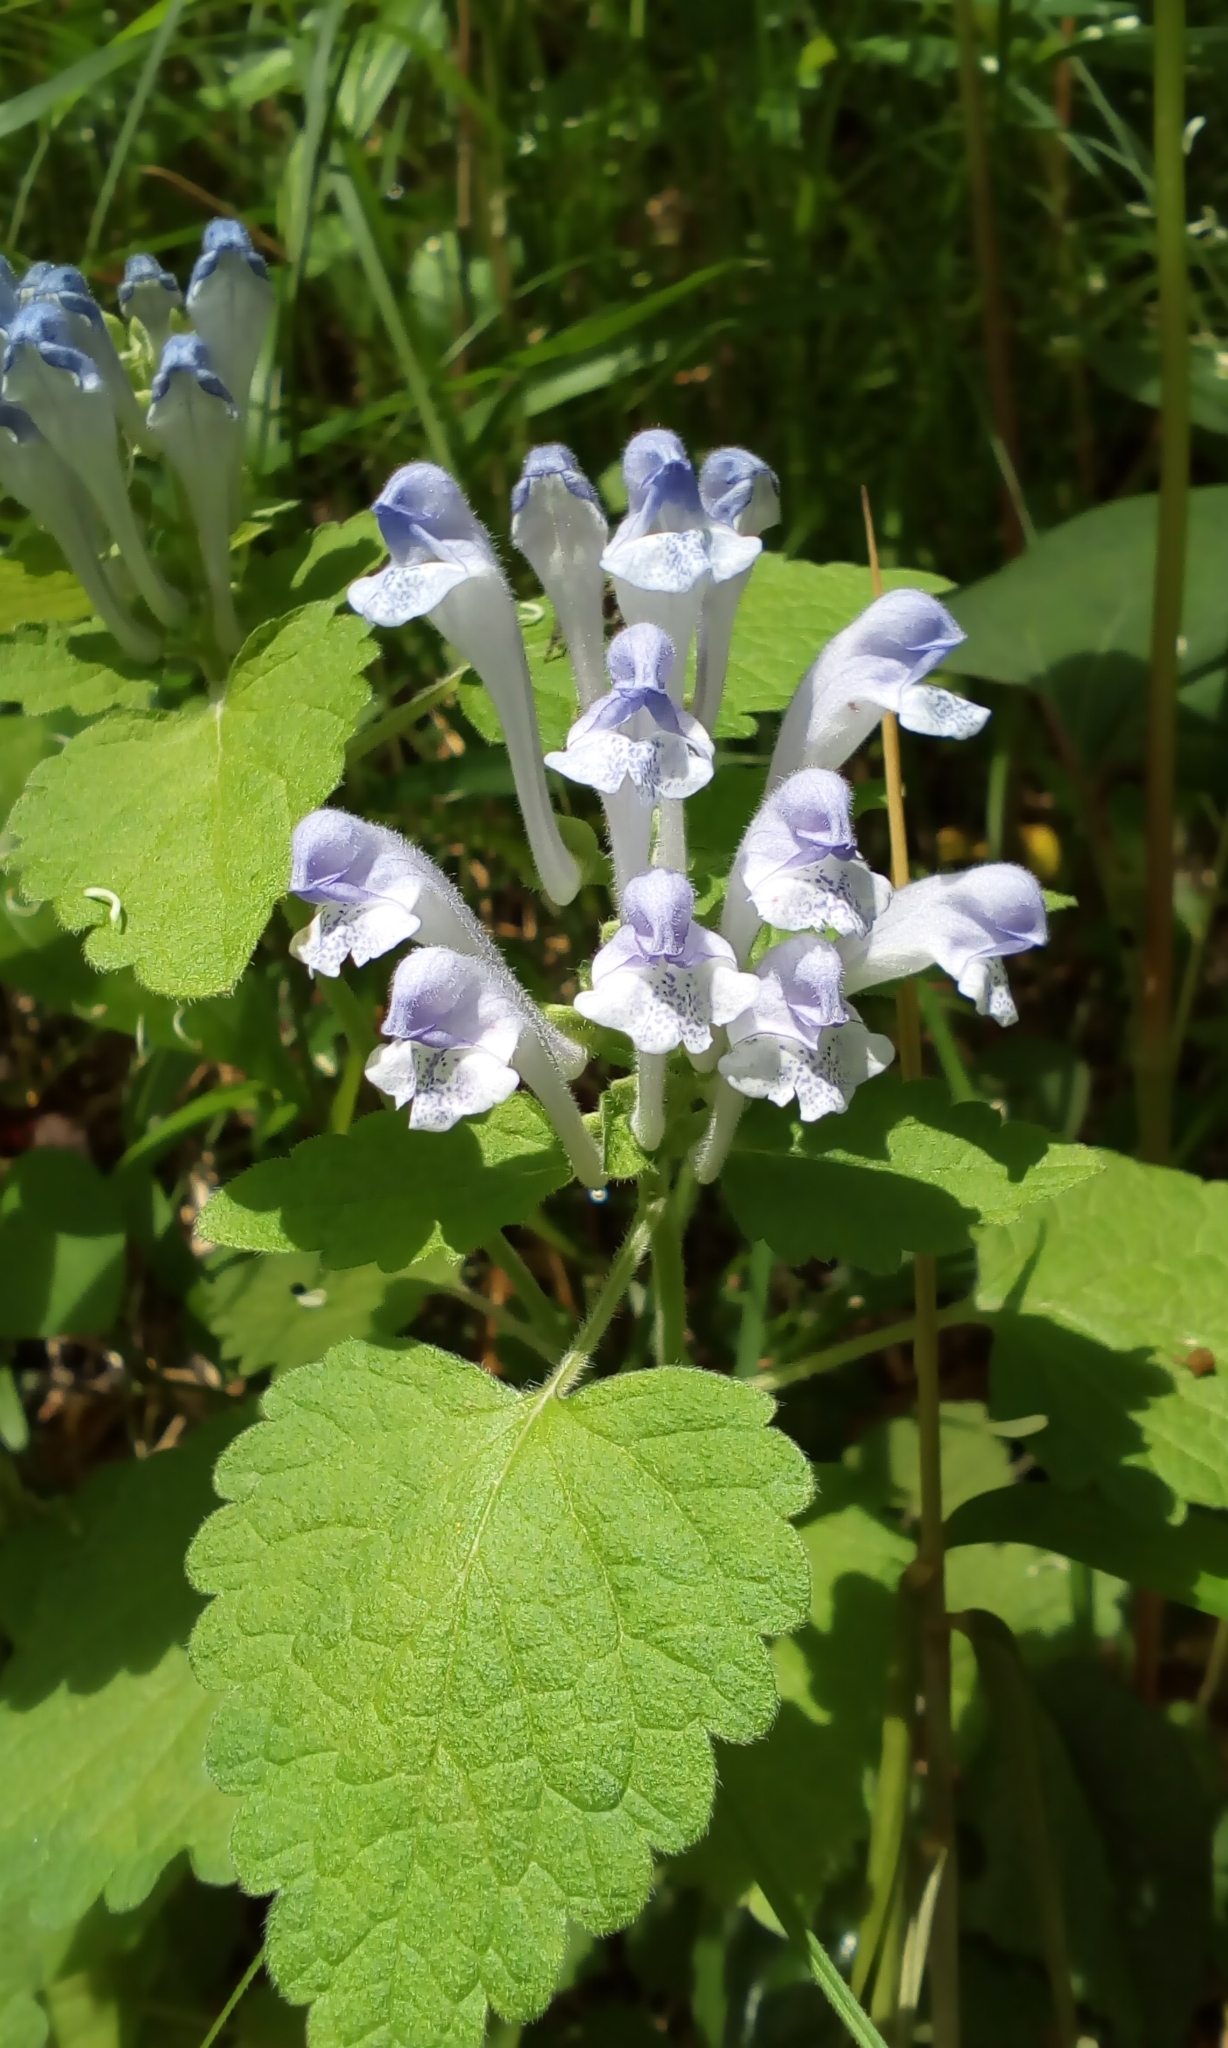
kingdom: Plantae
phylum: Tracheophyta
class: Magnoliopsida
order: Lamiales
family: Lamiaceae
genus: Scutellaria
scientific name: Scutellaria brachyspica
